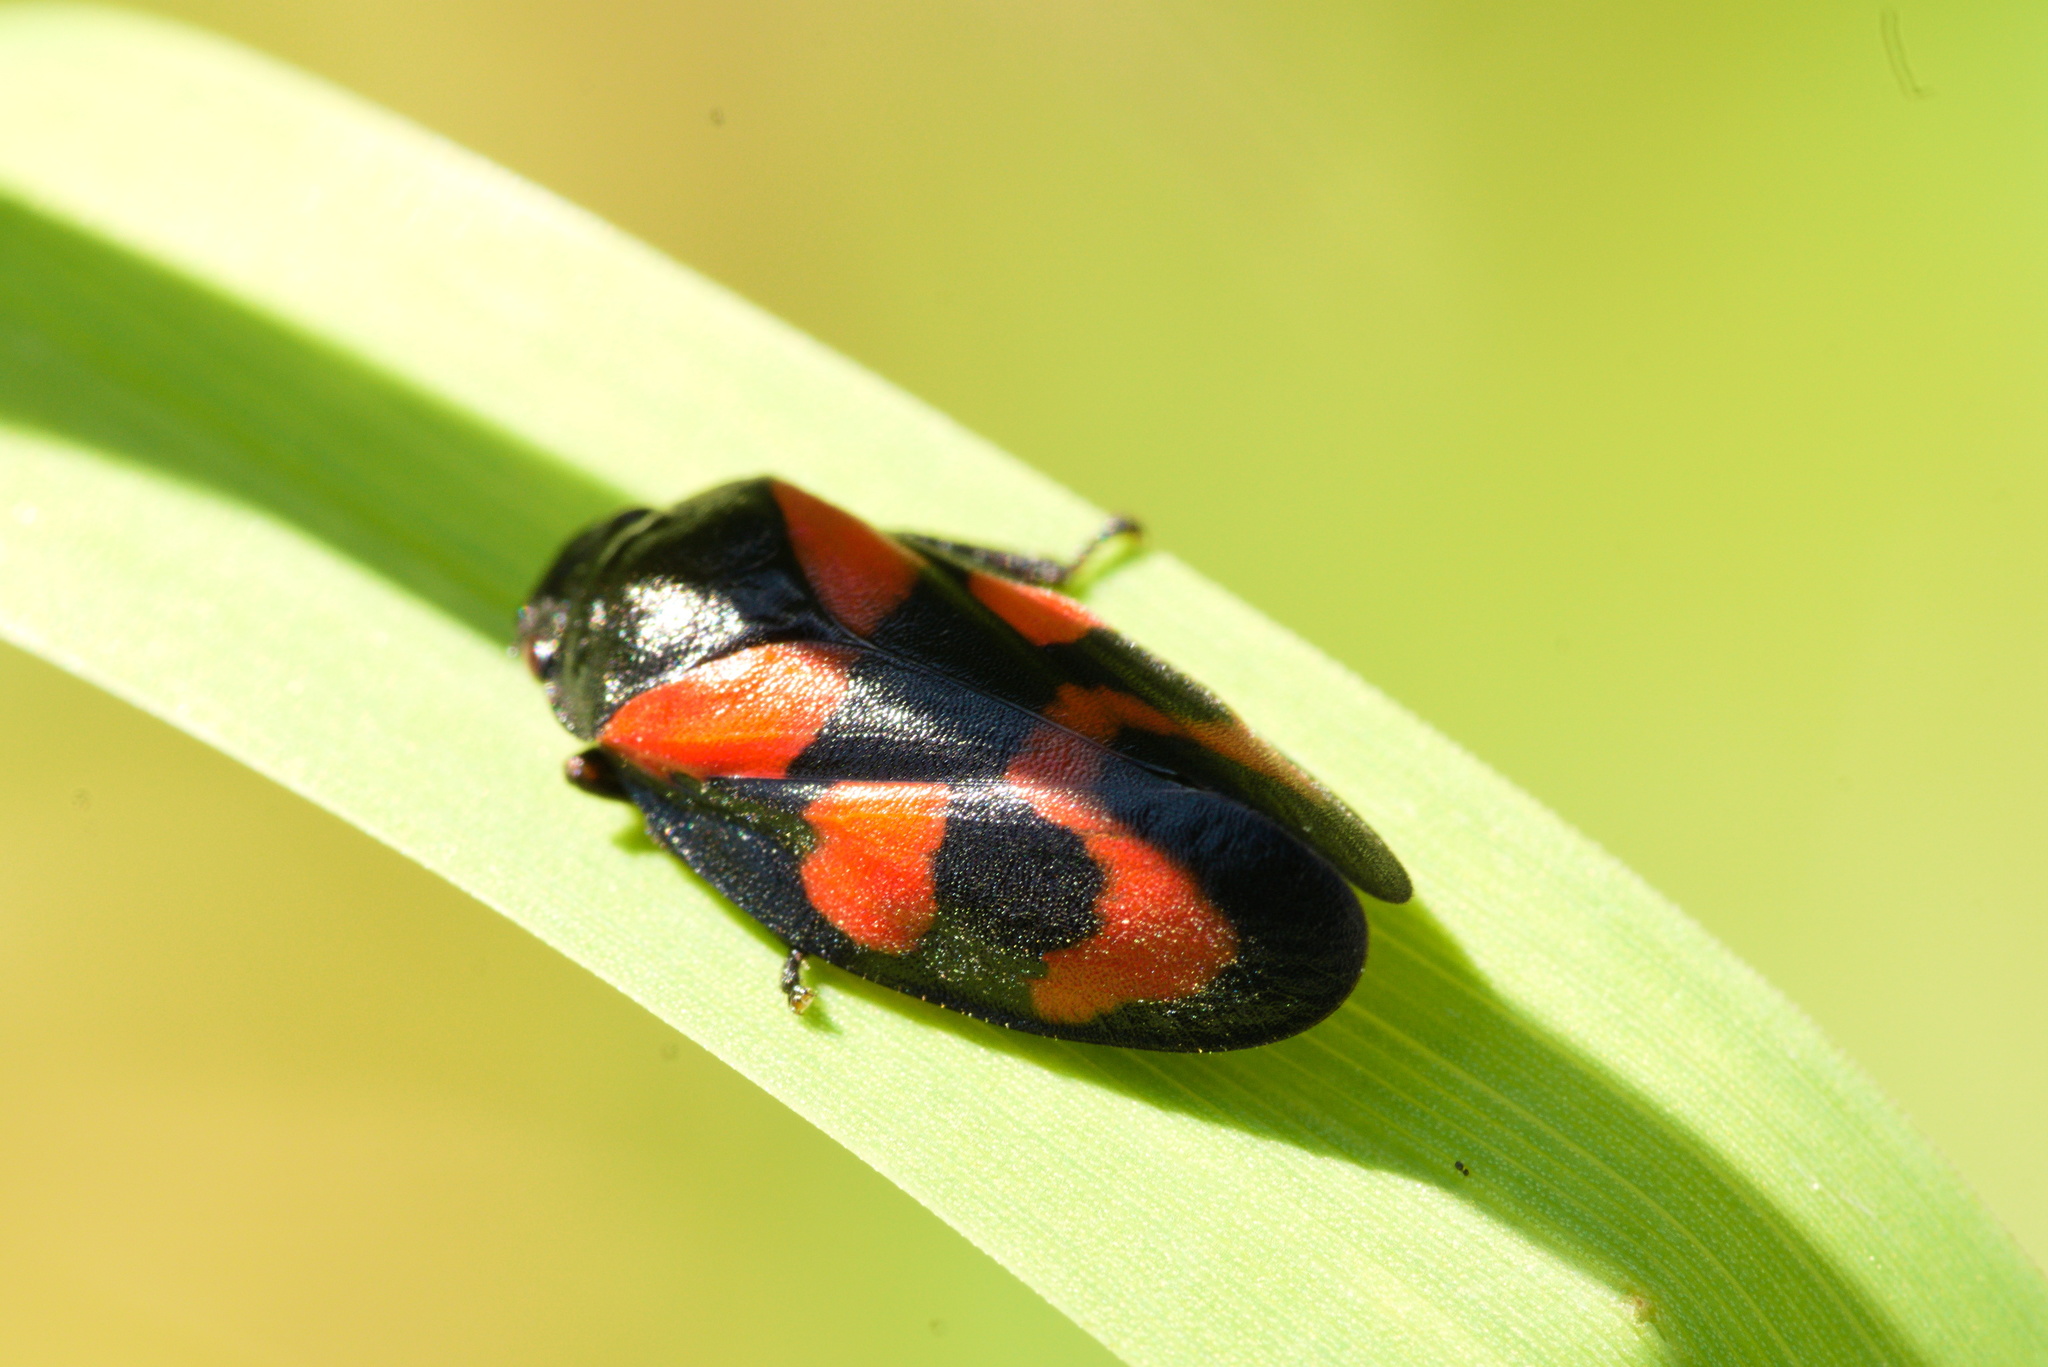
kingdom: Animalia
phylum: Arthropoda
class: Insecta
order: Hemiptera
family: Cercopidae
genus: Cercopis
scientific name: Cercopis vulnerata
